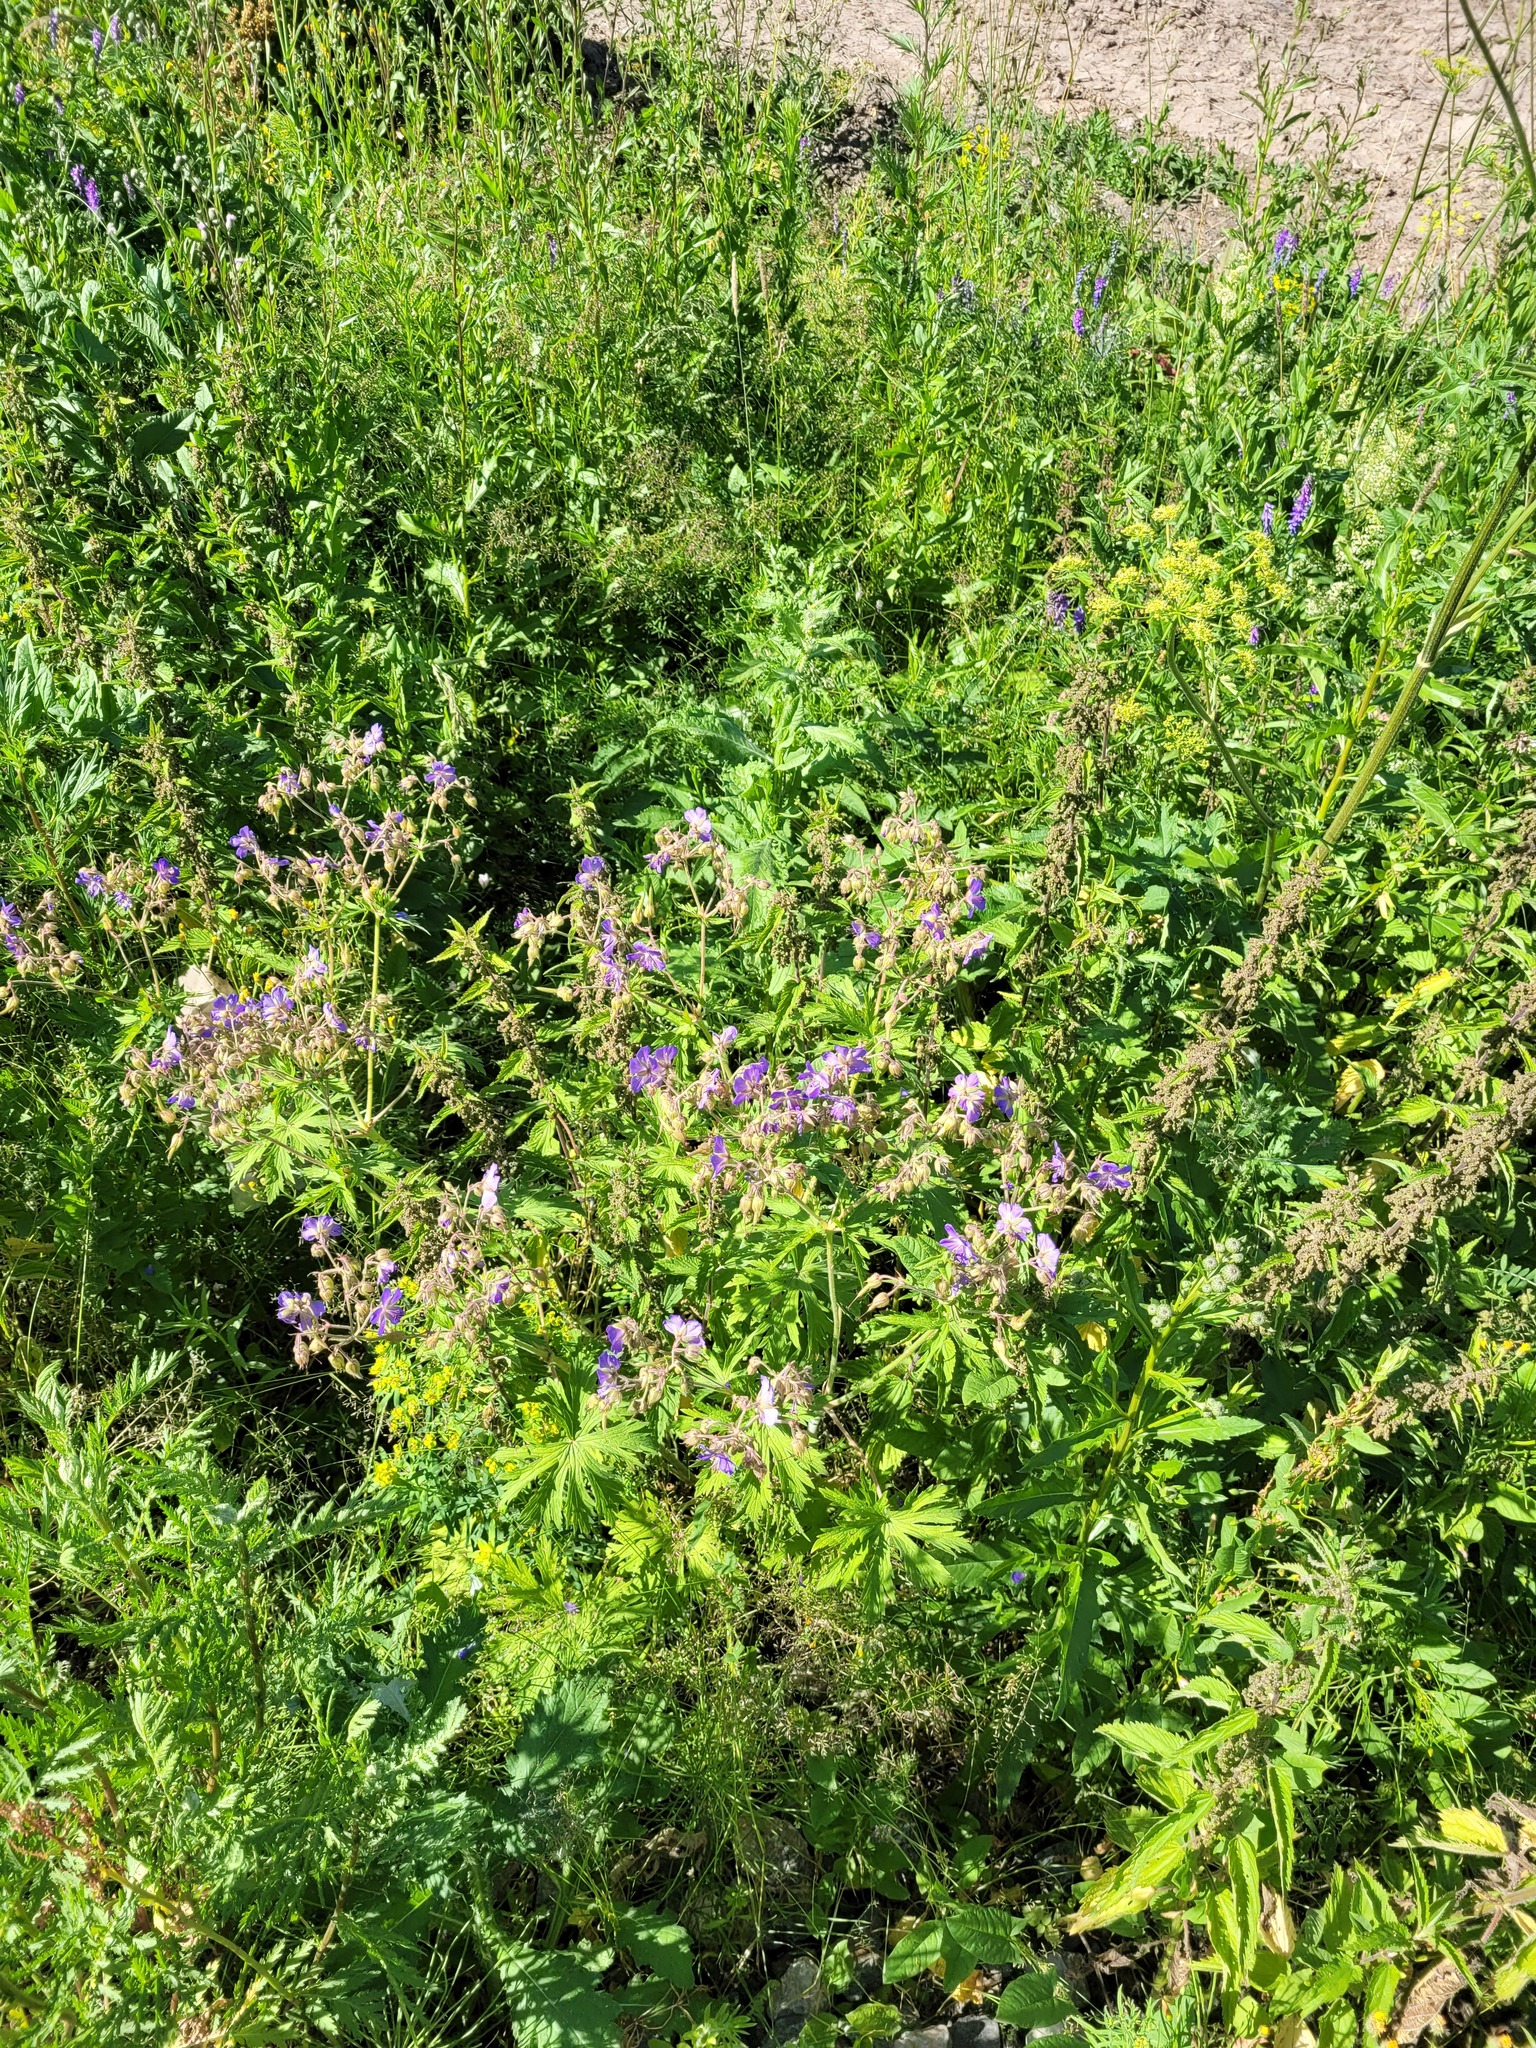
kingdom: Plantae
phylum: Tracheophyta
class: Magnoliopsida
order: Geraniales
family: Geraniaceae
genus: Geranium
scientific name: Geranium pratense
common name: Meadow crane's-bill
